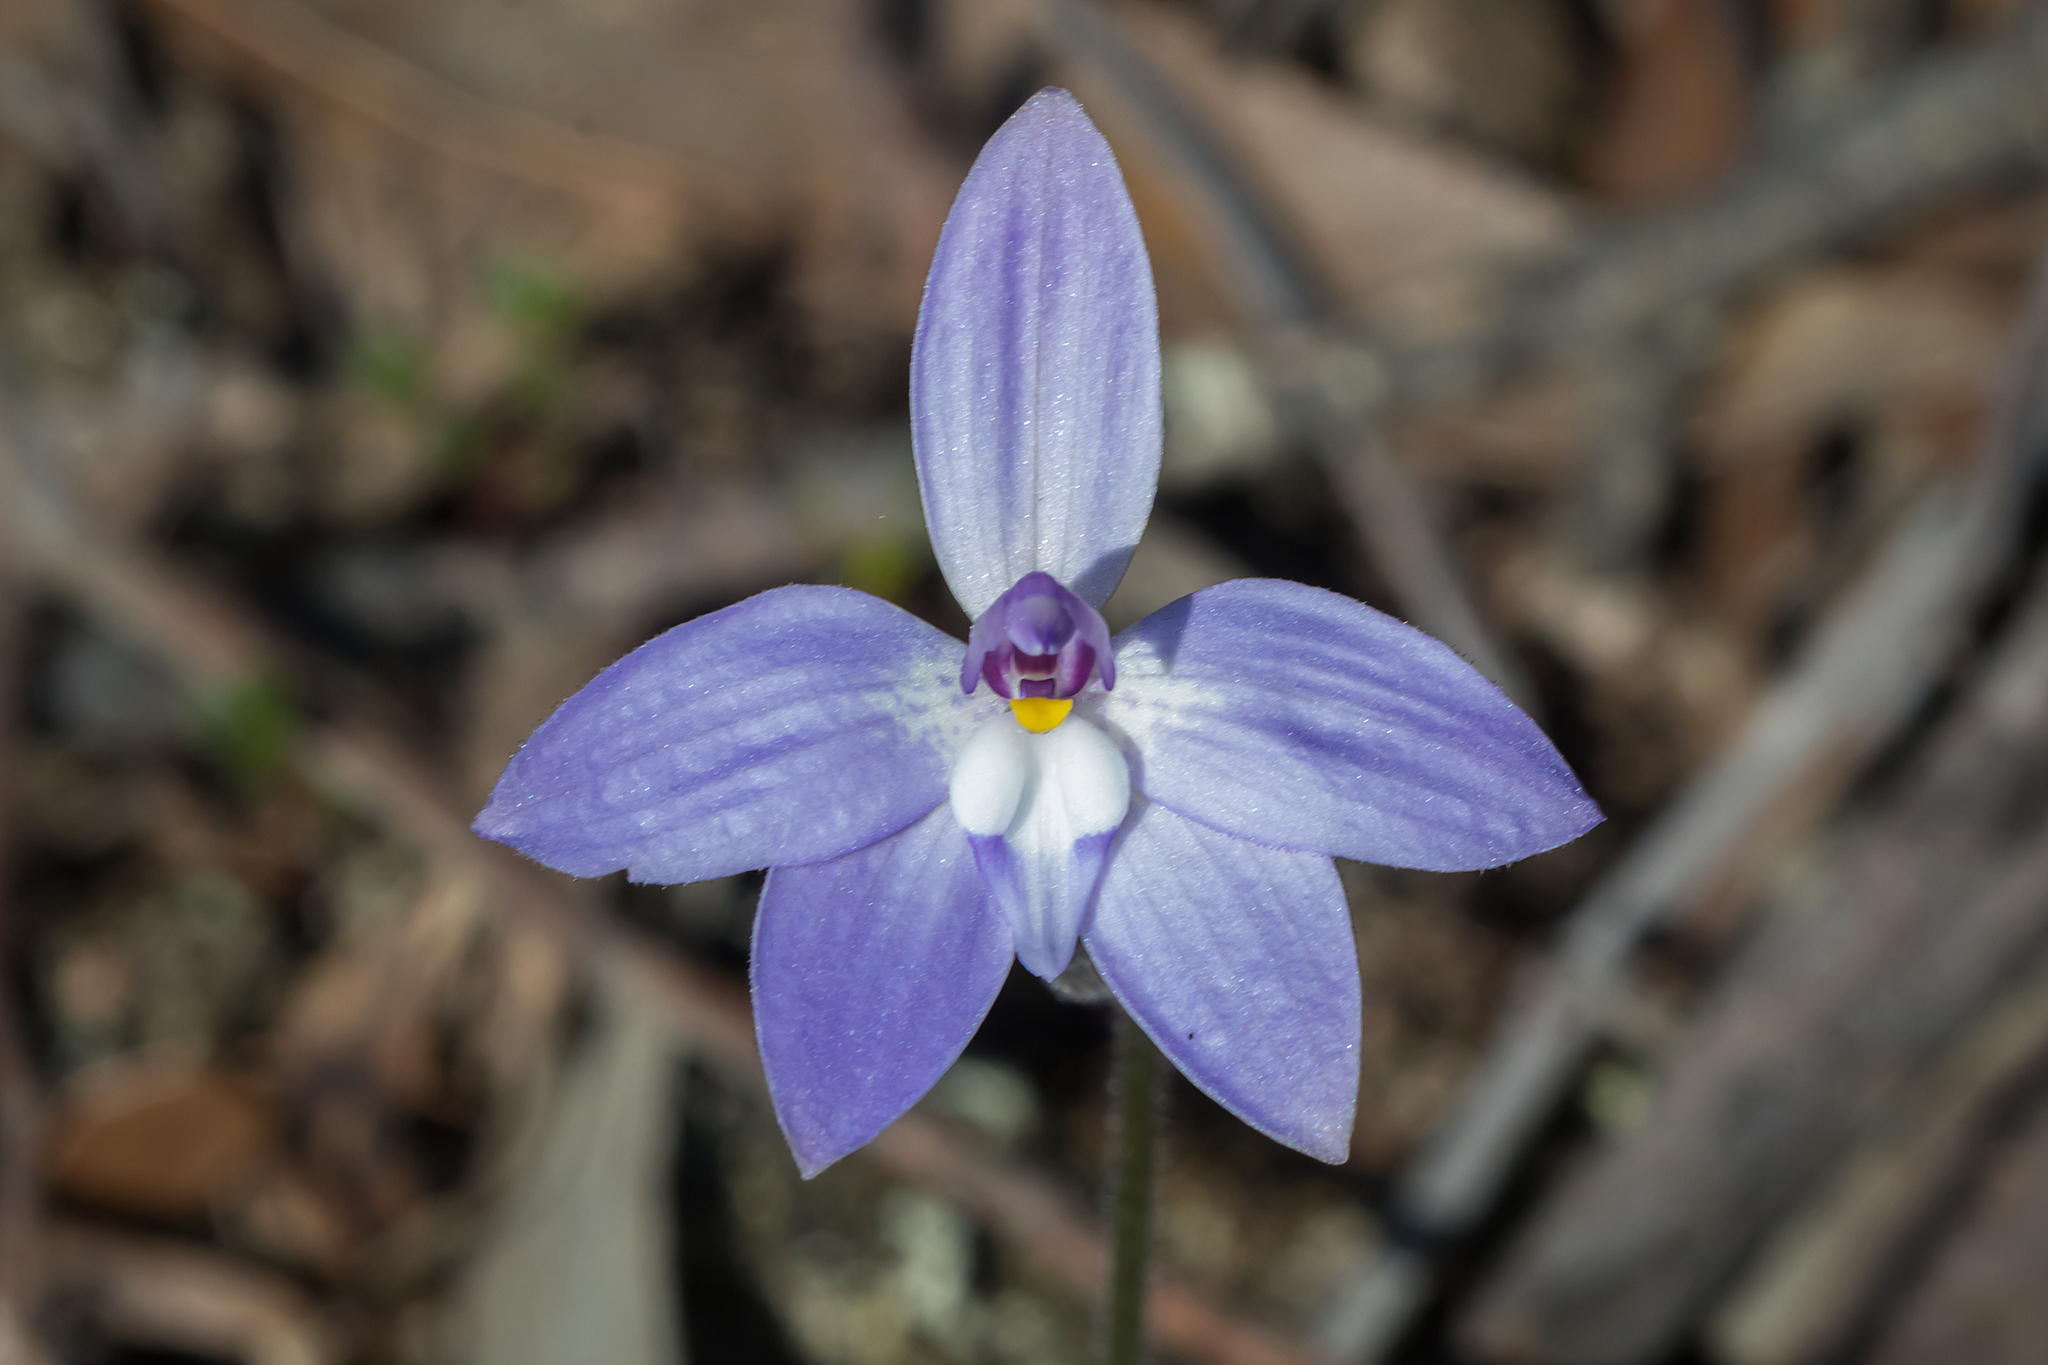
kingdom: Plantae
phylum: Tracheophyta
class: Liliopsida
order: Asparagales
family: Orchidaceae
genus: Caladenia
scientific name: Caladenia major
